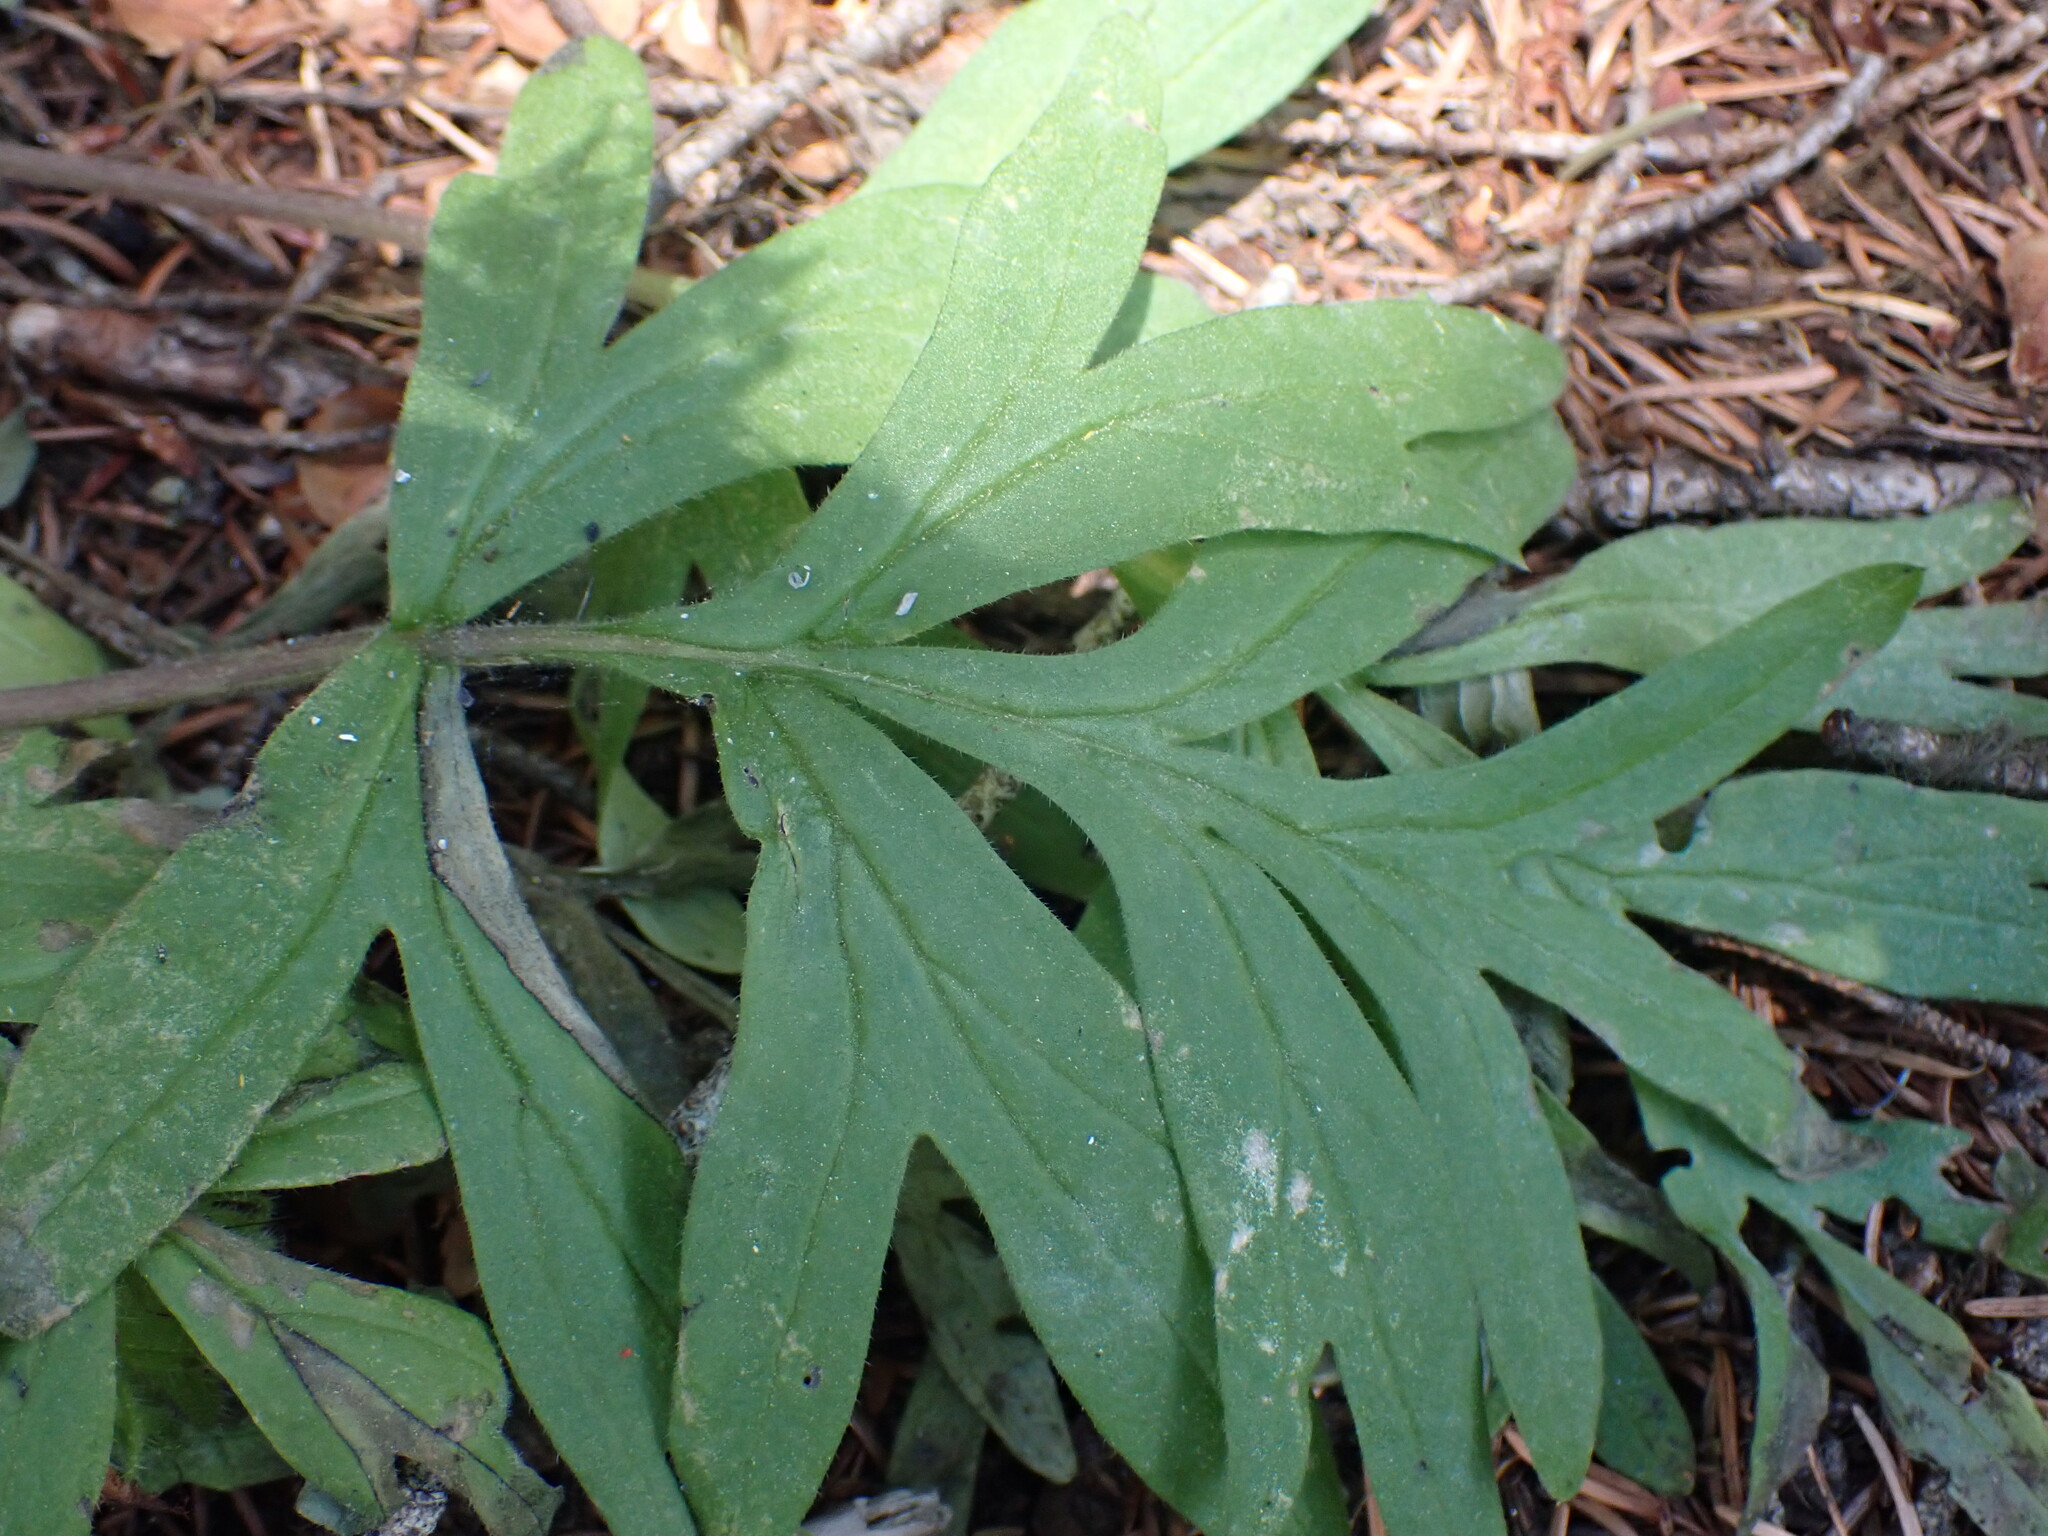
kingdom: Plantae
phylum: Tracheophyta
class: Magnoliopsida
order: Boraginales
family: Hydrophyllaceae
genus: Hydrophyllum
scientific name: Hydrophyllum capitatum
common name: Woollen-breeches
